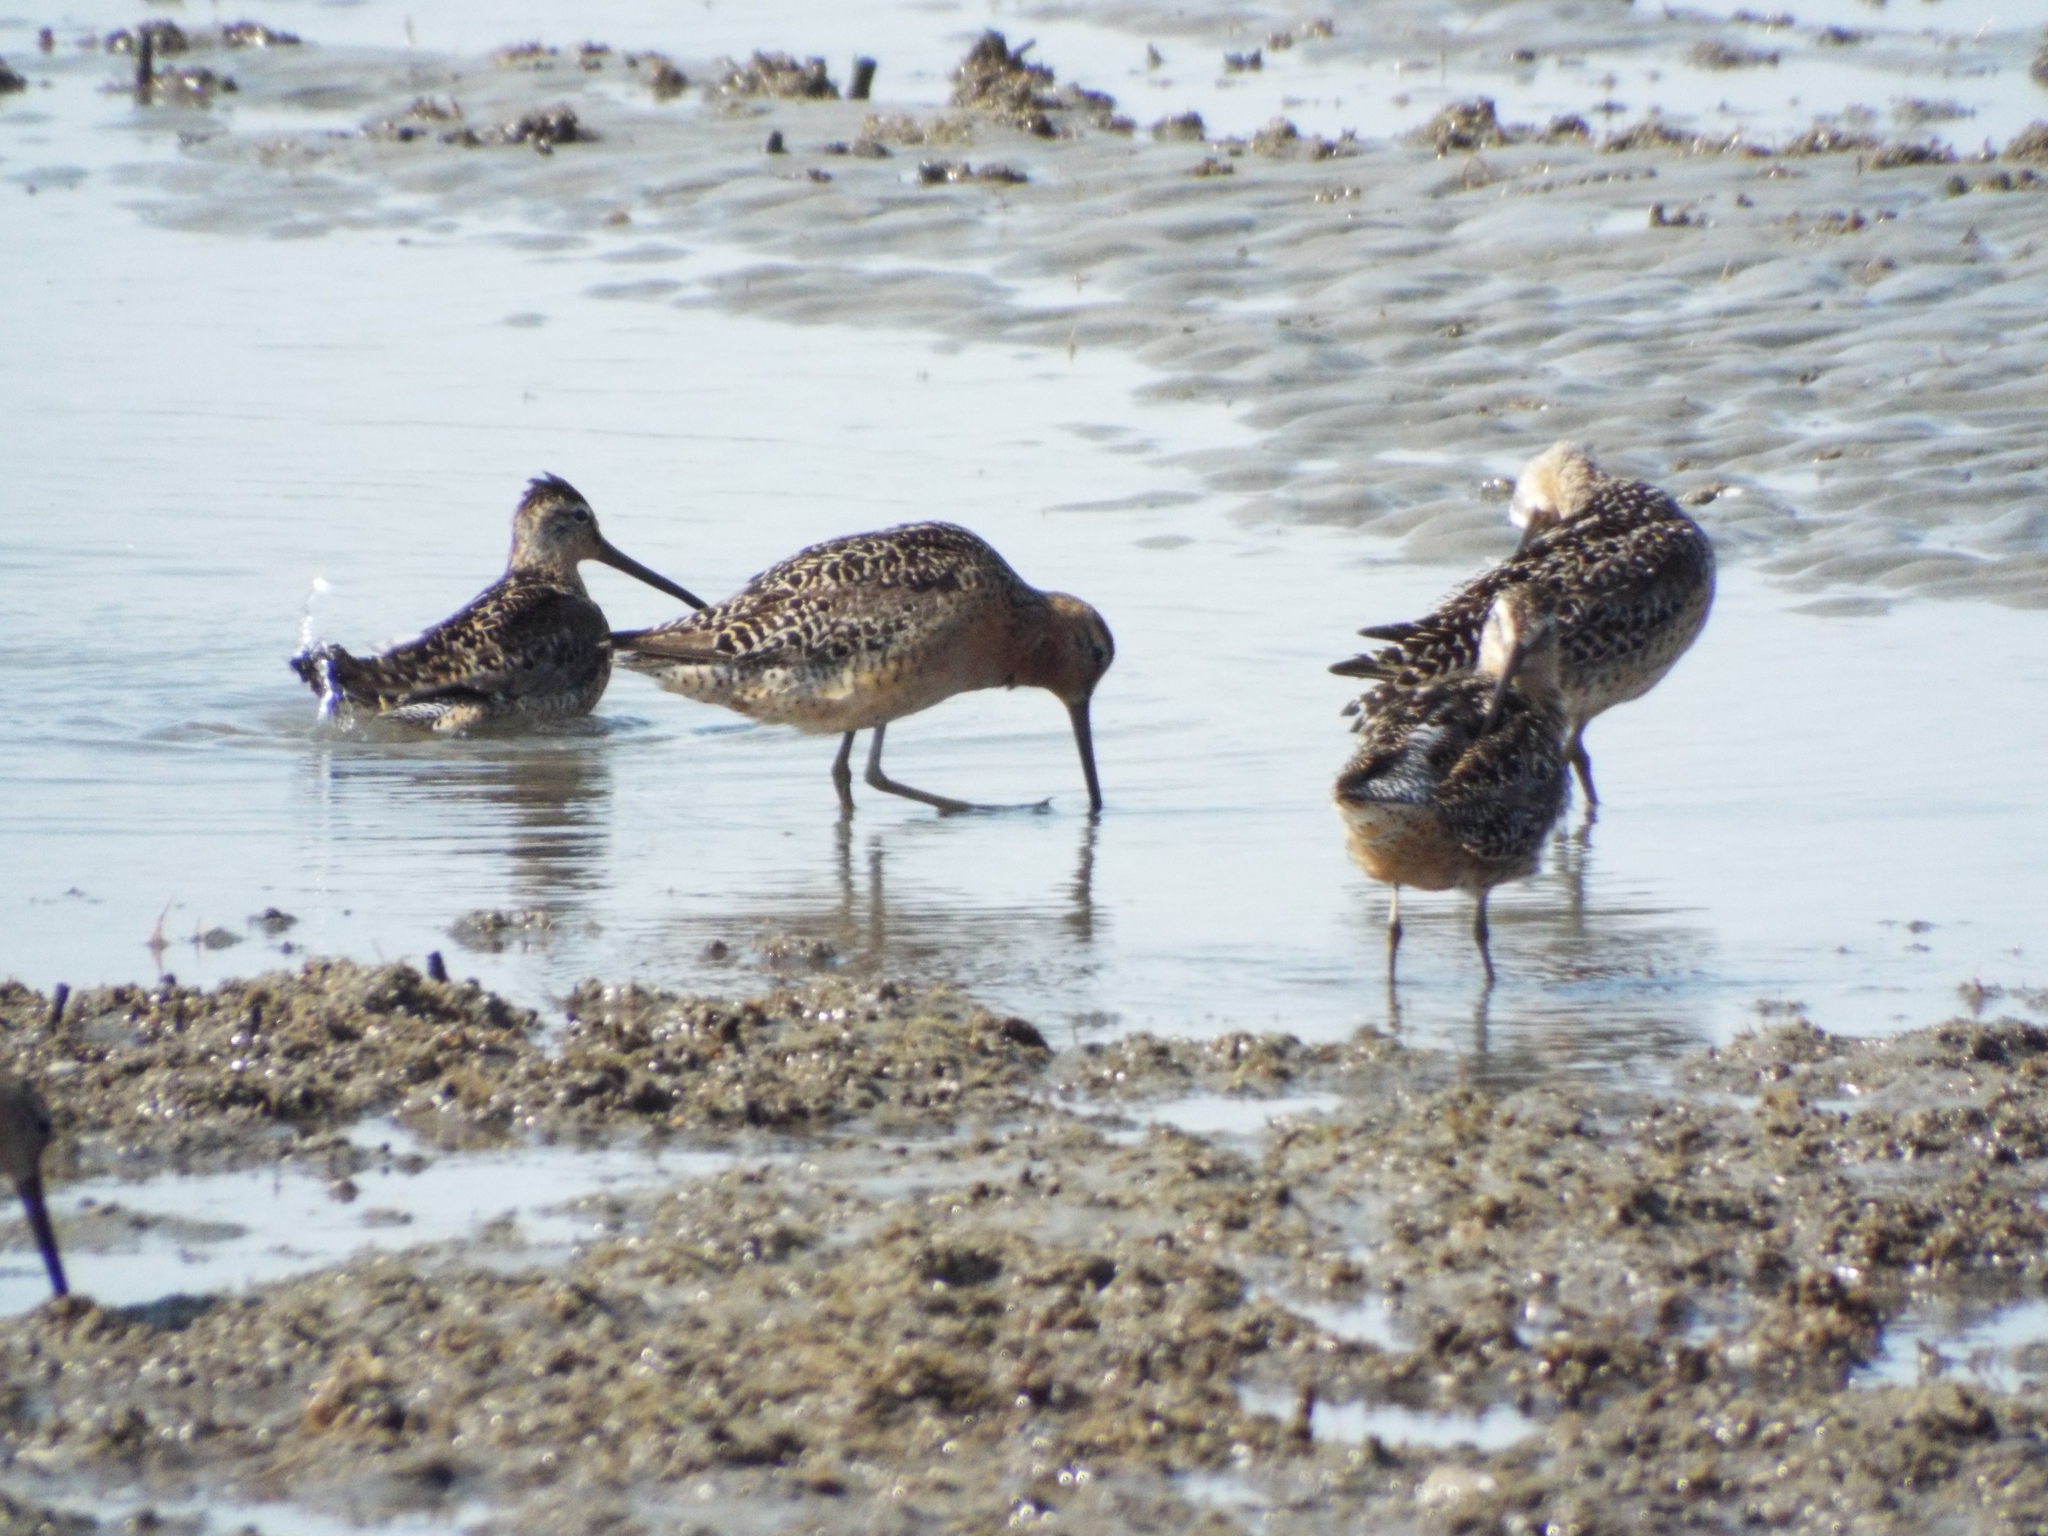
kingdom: Animalia
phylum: Chordata
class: Aves
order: Charadriiformes
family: Scolopacidae
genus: Limnodromus
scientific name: Limnodromus griseus
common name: Short-billed dowitcher
